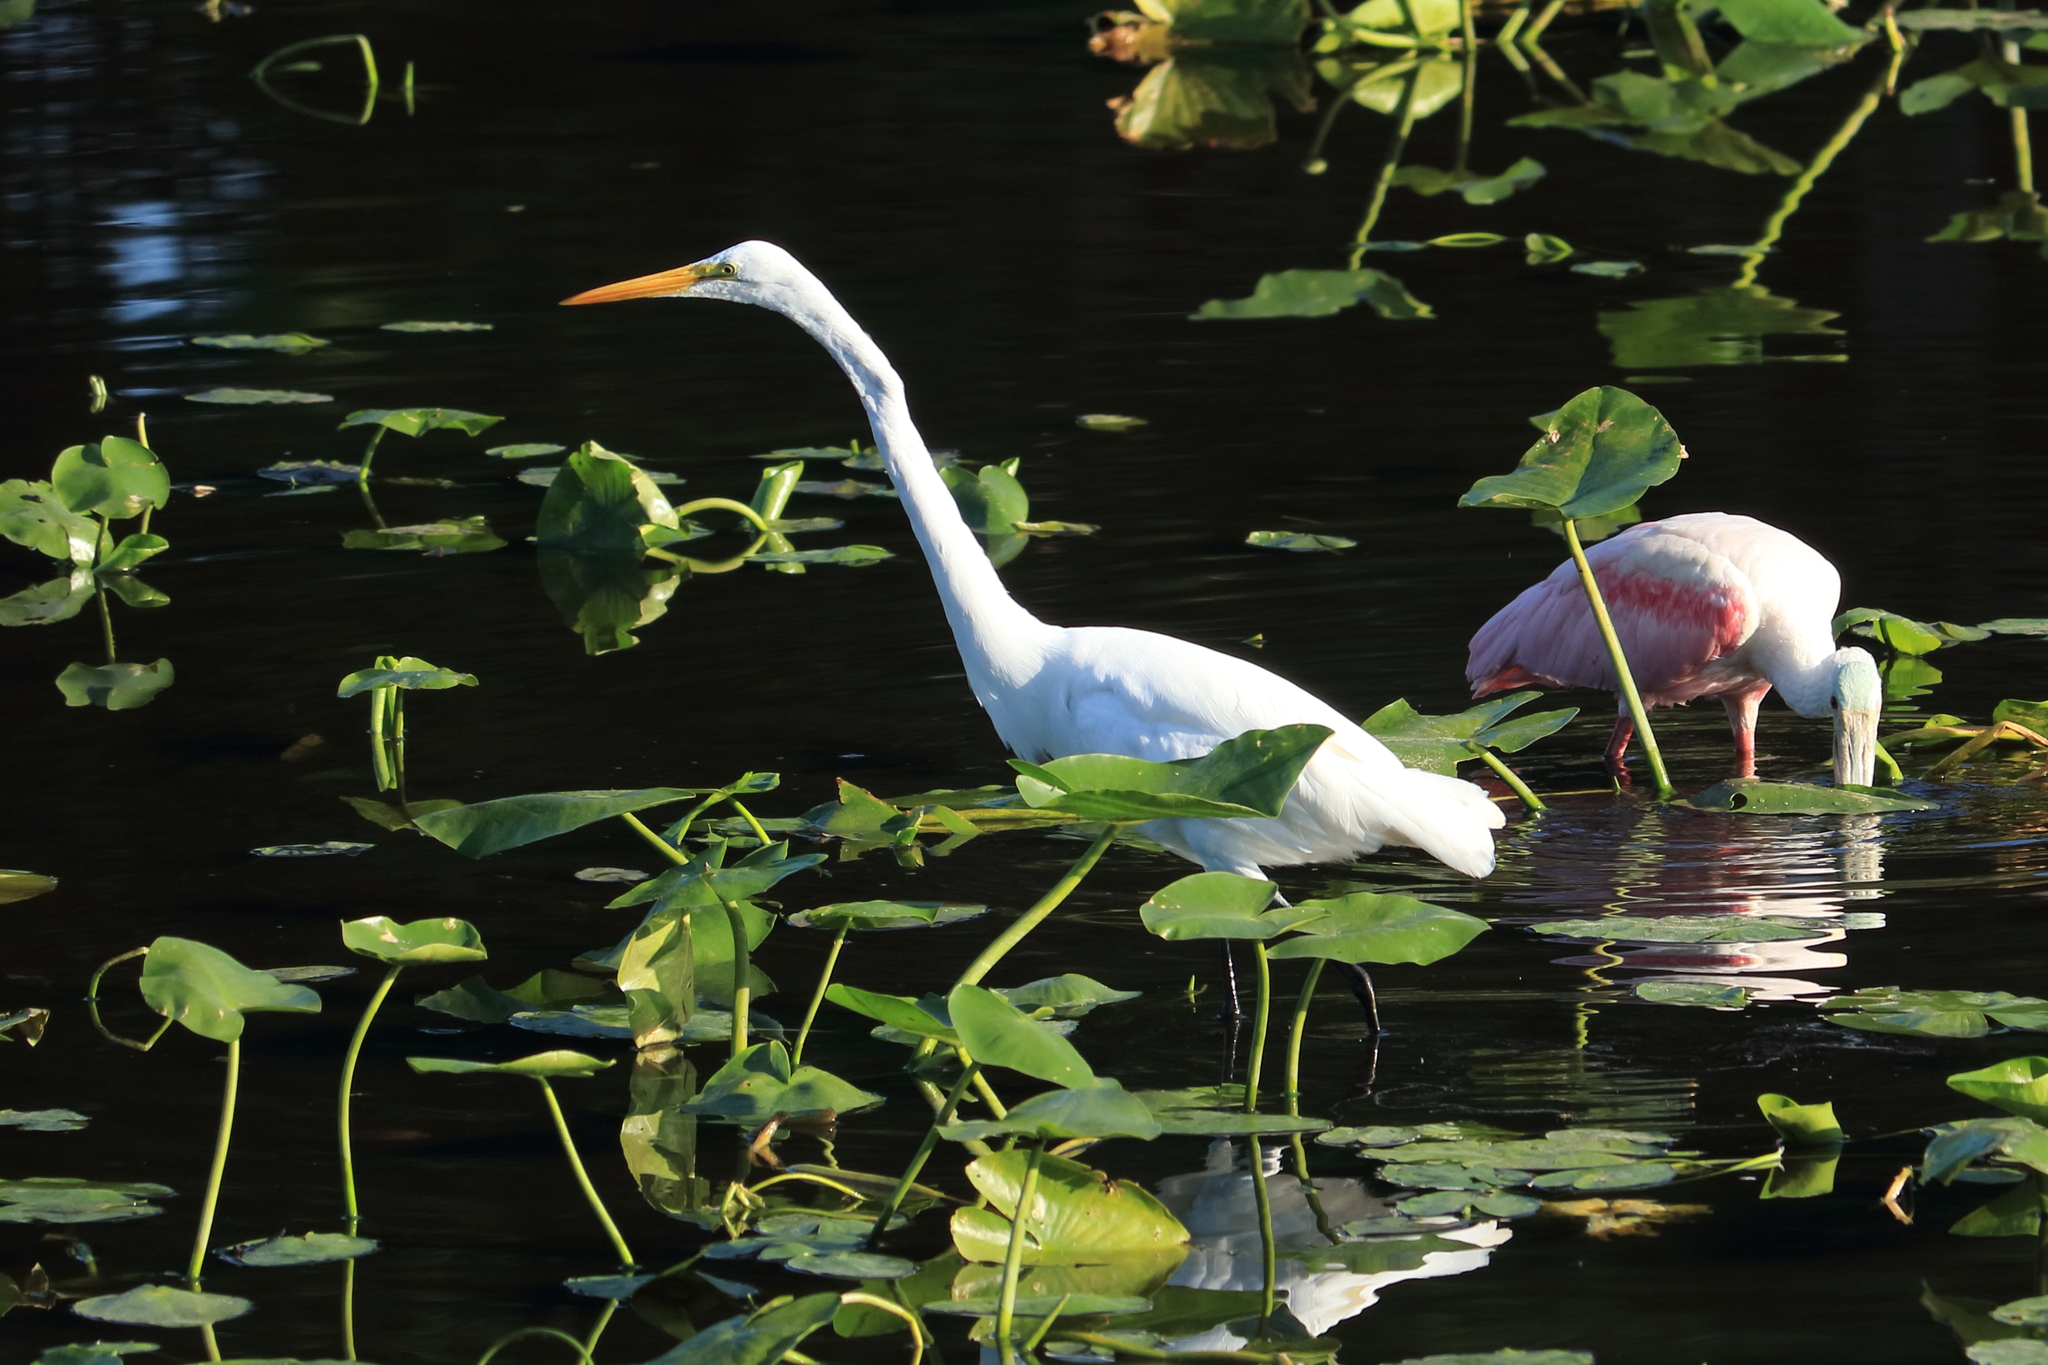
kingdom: Animalia
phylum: Chordata
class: Aves
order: Pelecaniformes
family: Ardeidae
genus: Ardea
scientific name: Ardea alba
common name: Great egret
